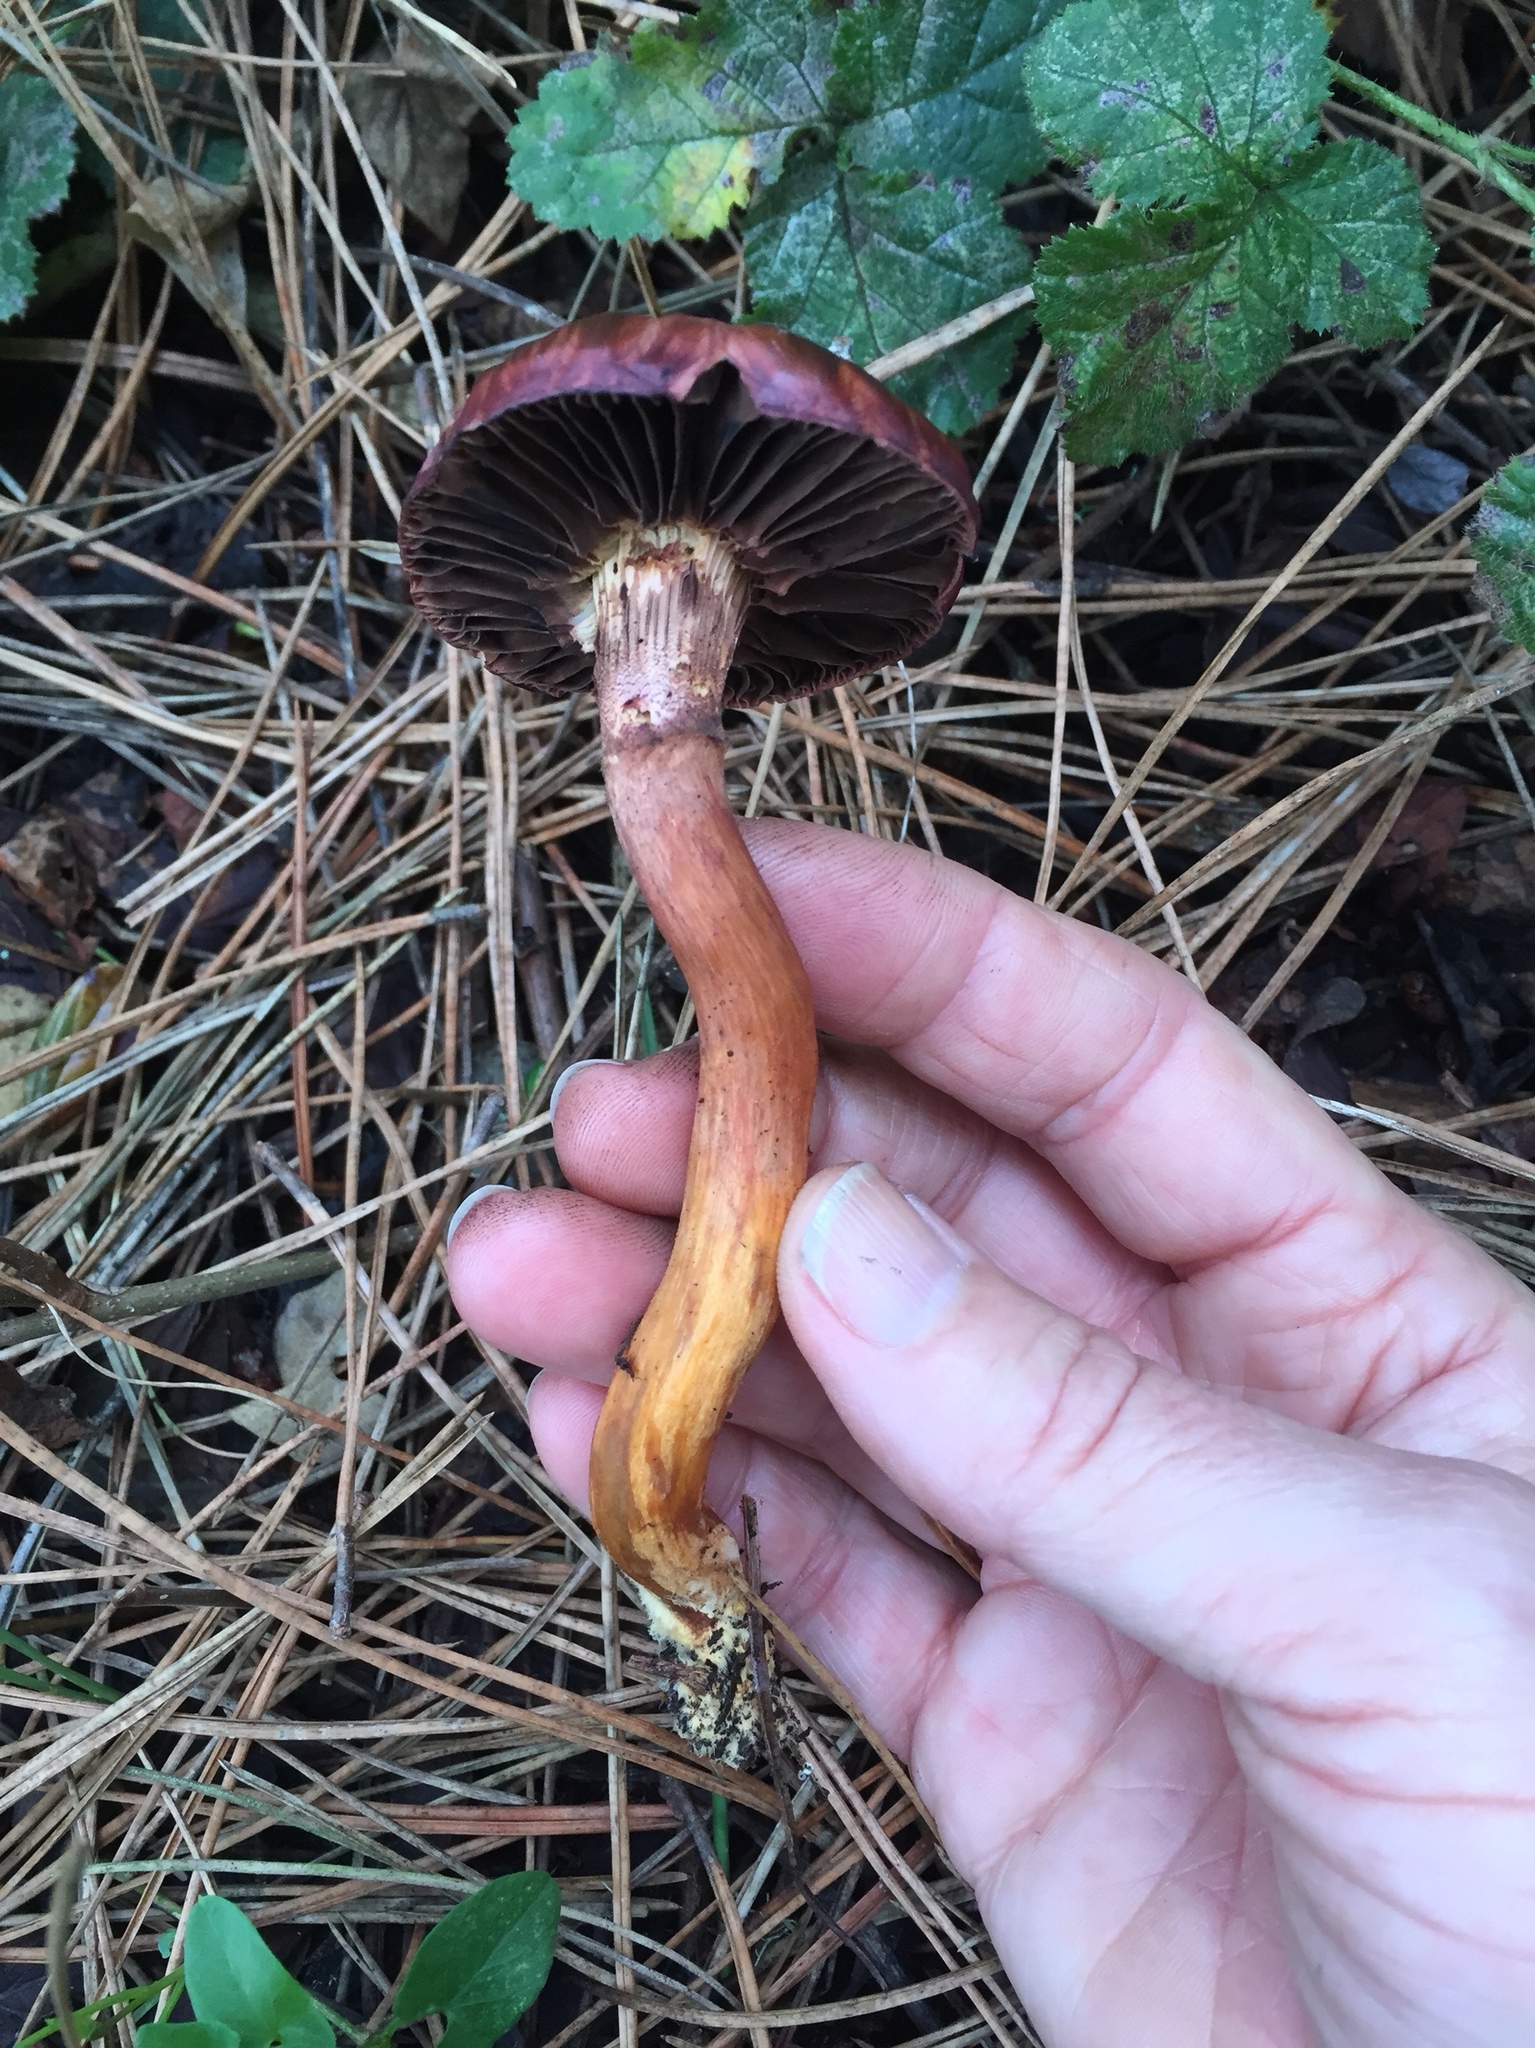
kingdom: Fungi
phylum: Basidiomycota
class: Agaricomycetes
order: Boletales
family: Gomphidiaceae
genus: Chroogomphus
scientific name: Chroogomphus vinicolor
